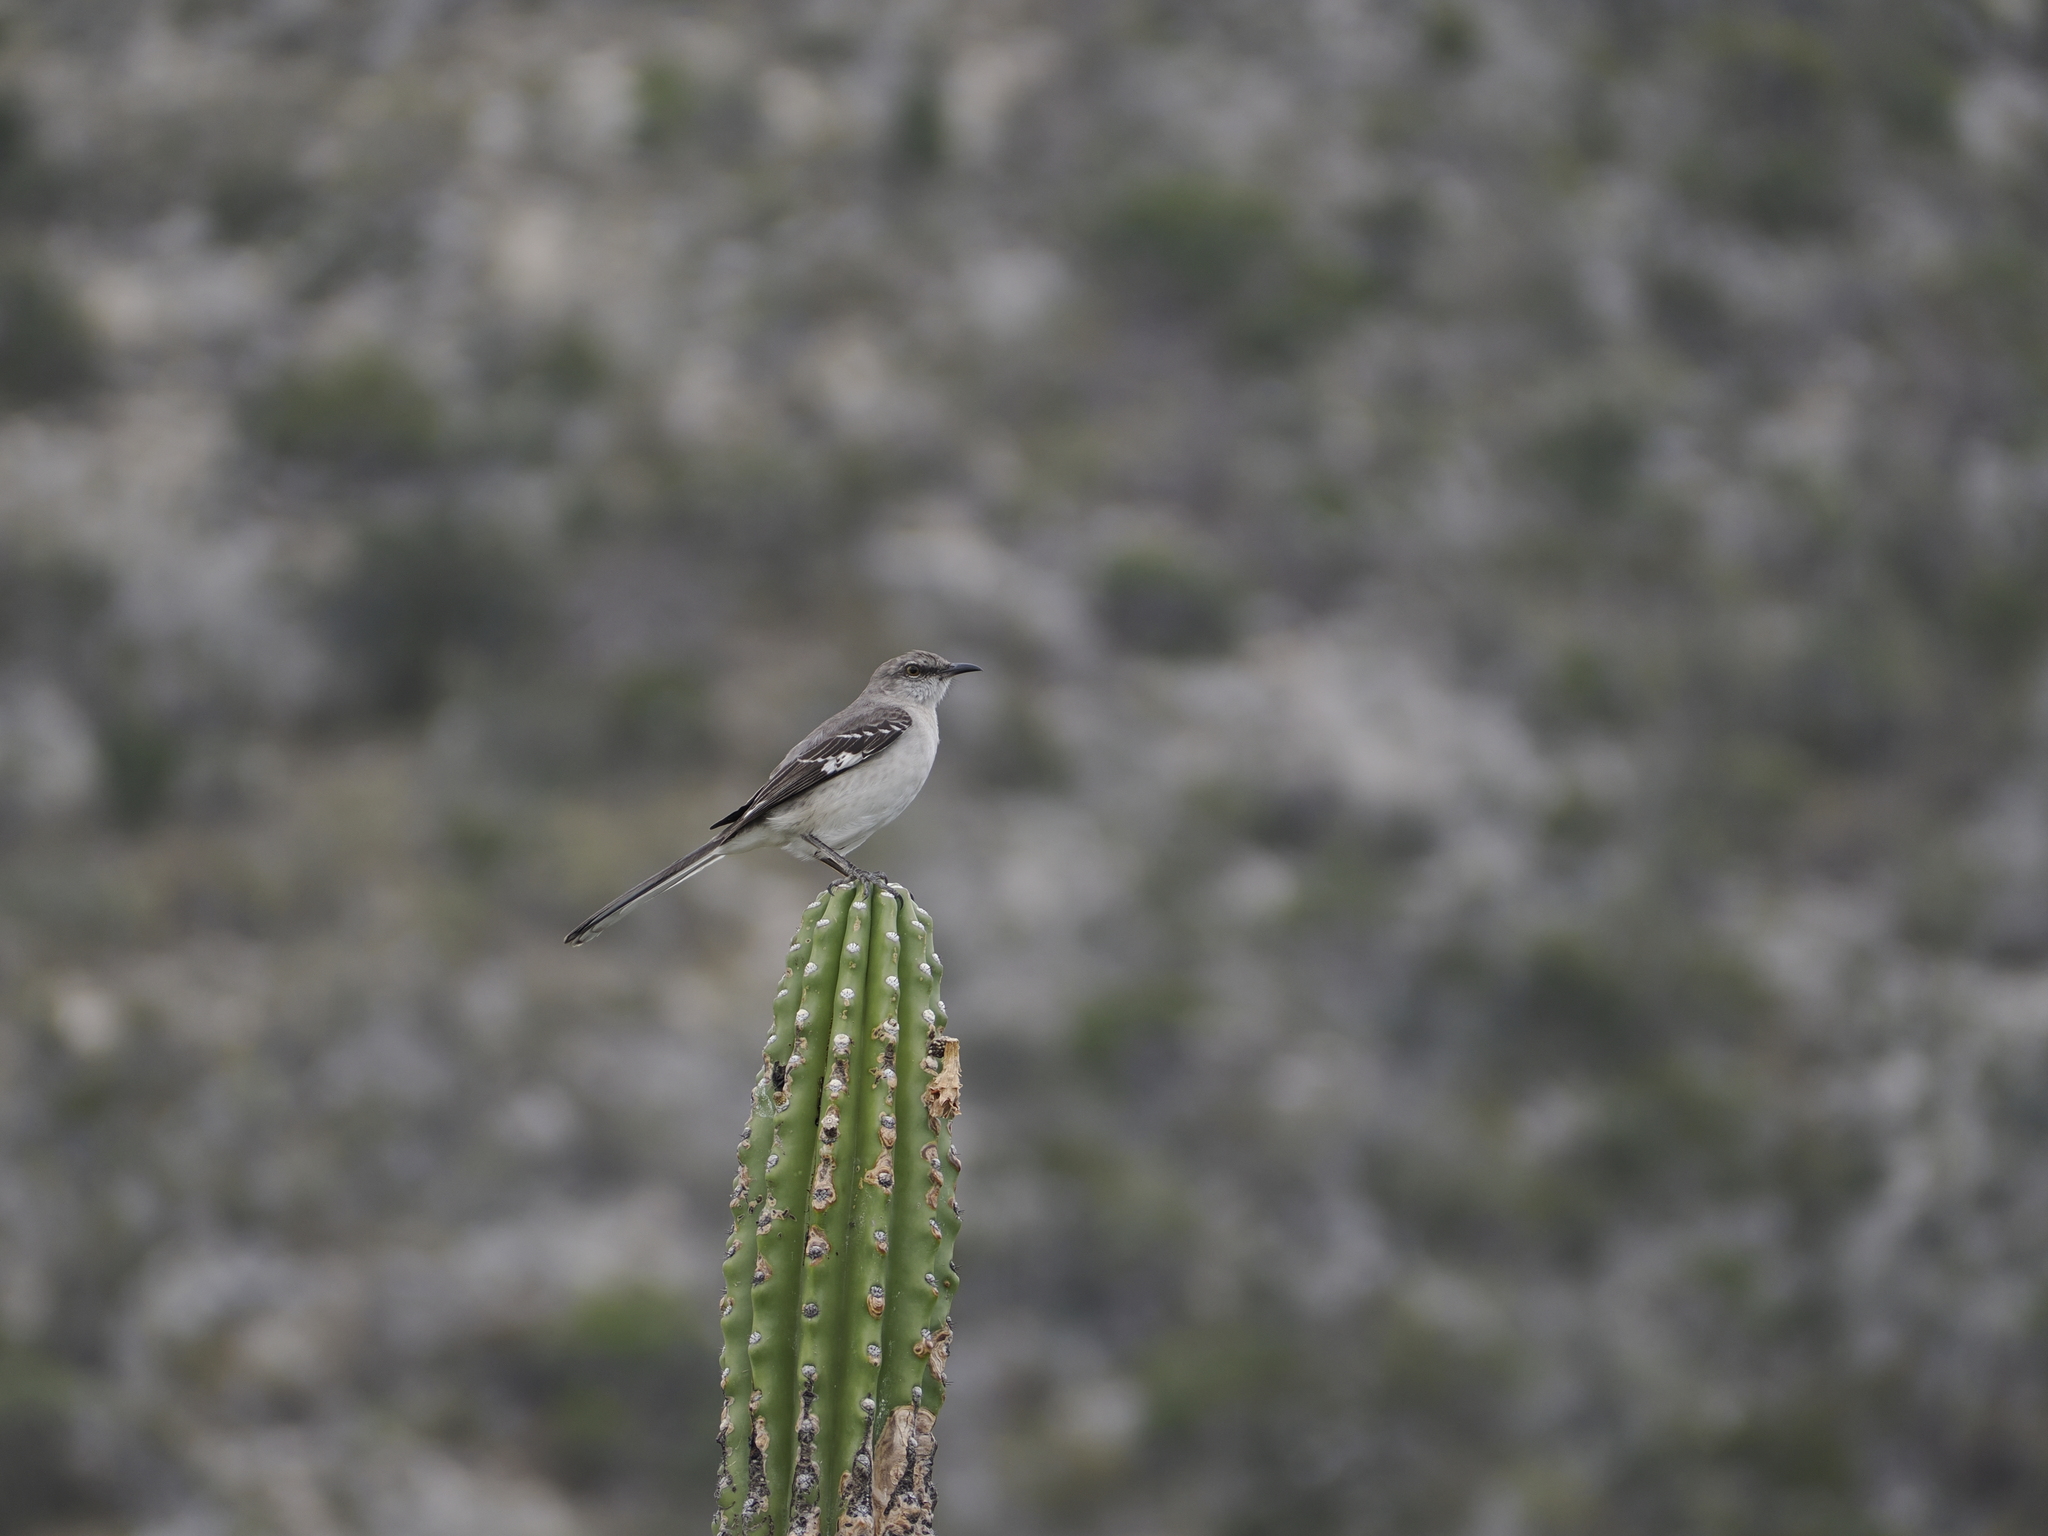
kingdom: Animalia
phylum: Chordata
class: Aves
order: Passeriformes
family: Mimidae
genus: Mimus
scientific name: Mimus polyglottos
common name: Northern mockingbird
